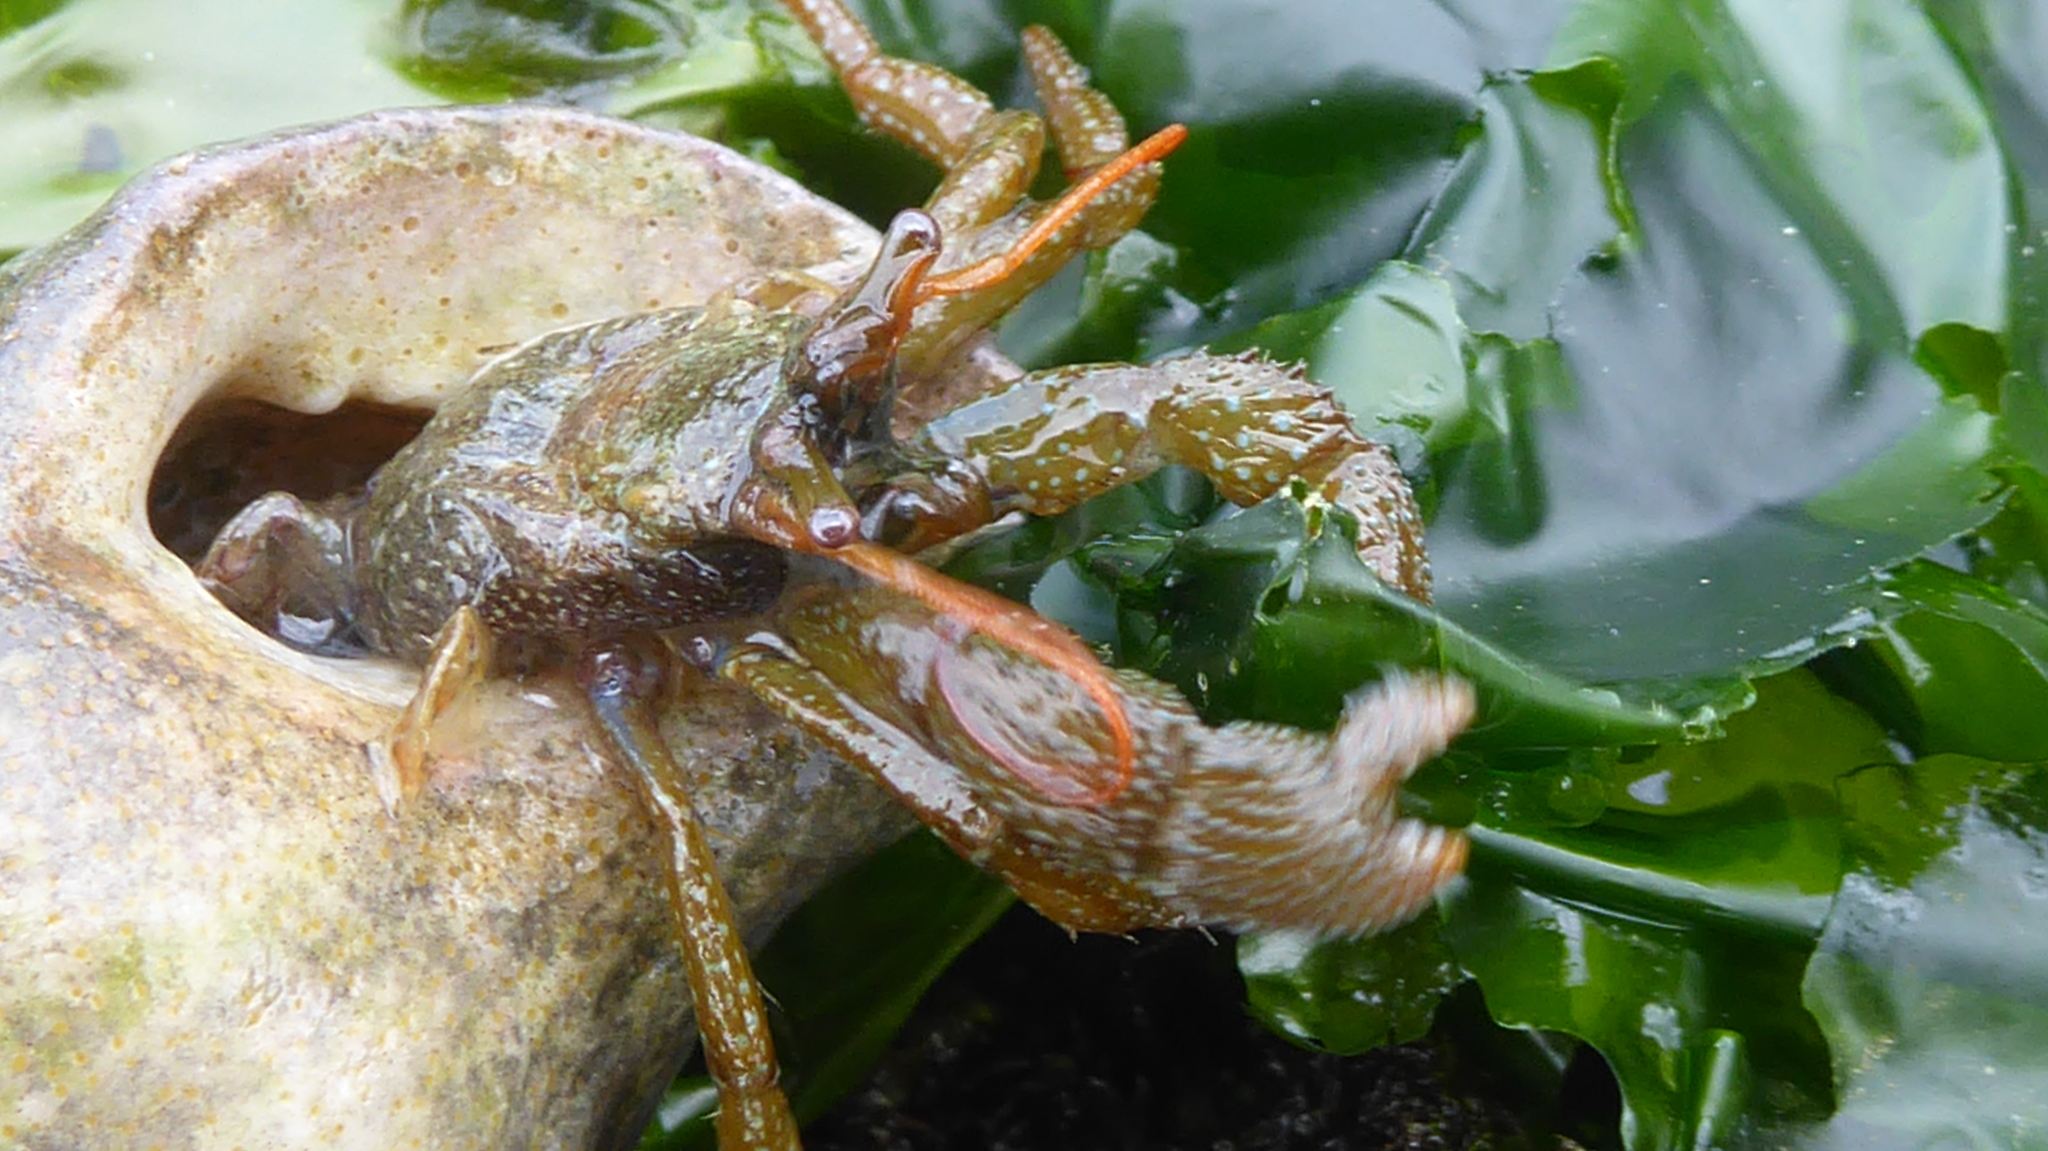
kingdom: Animalia
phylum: Arthropoda
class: Malacostraca
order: Decapoda
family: Paguridae
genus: Pagurus
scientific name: Pagurus granosimanus
